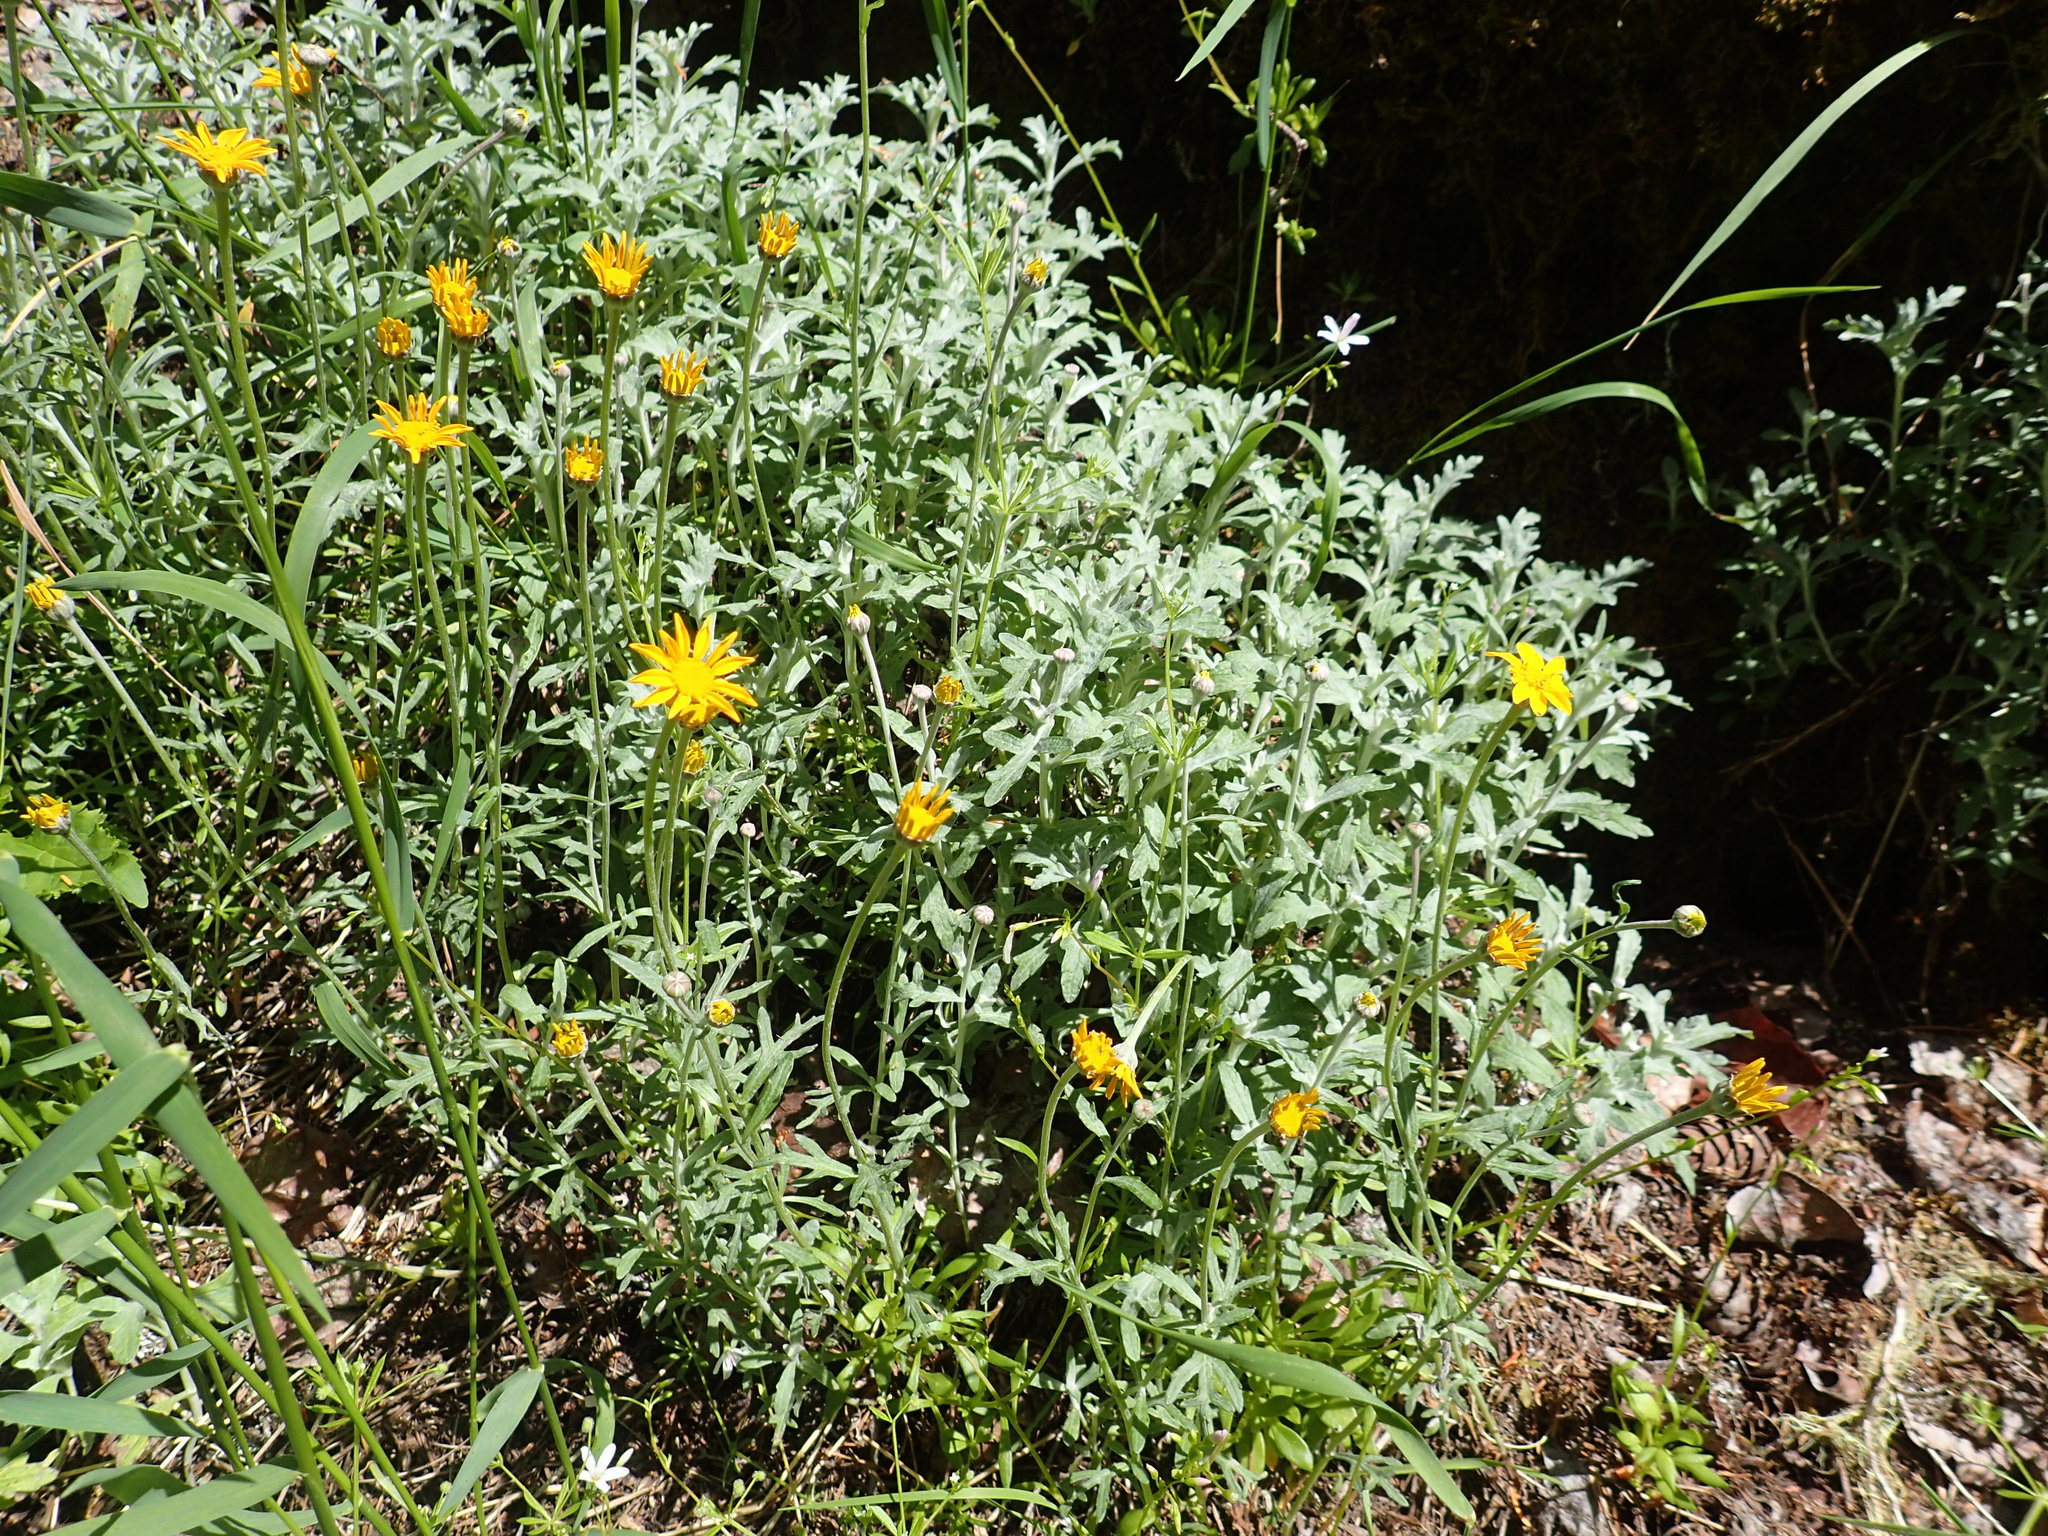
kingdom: Plantae
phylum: Tracheophyta
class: Magnoliopsida
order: Asterales
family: Asteraceae
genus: Eriophyllum
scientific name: Eriophyllum lanatum
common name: Common woolly-sunflower
